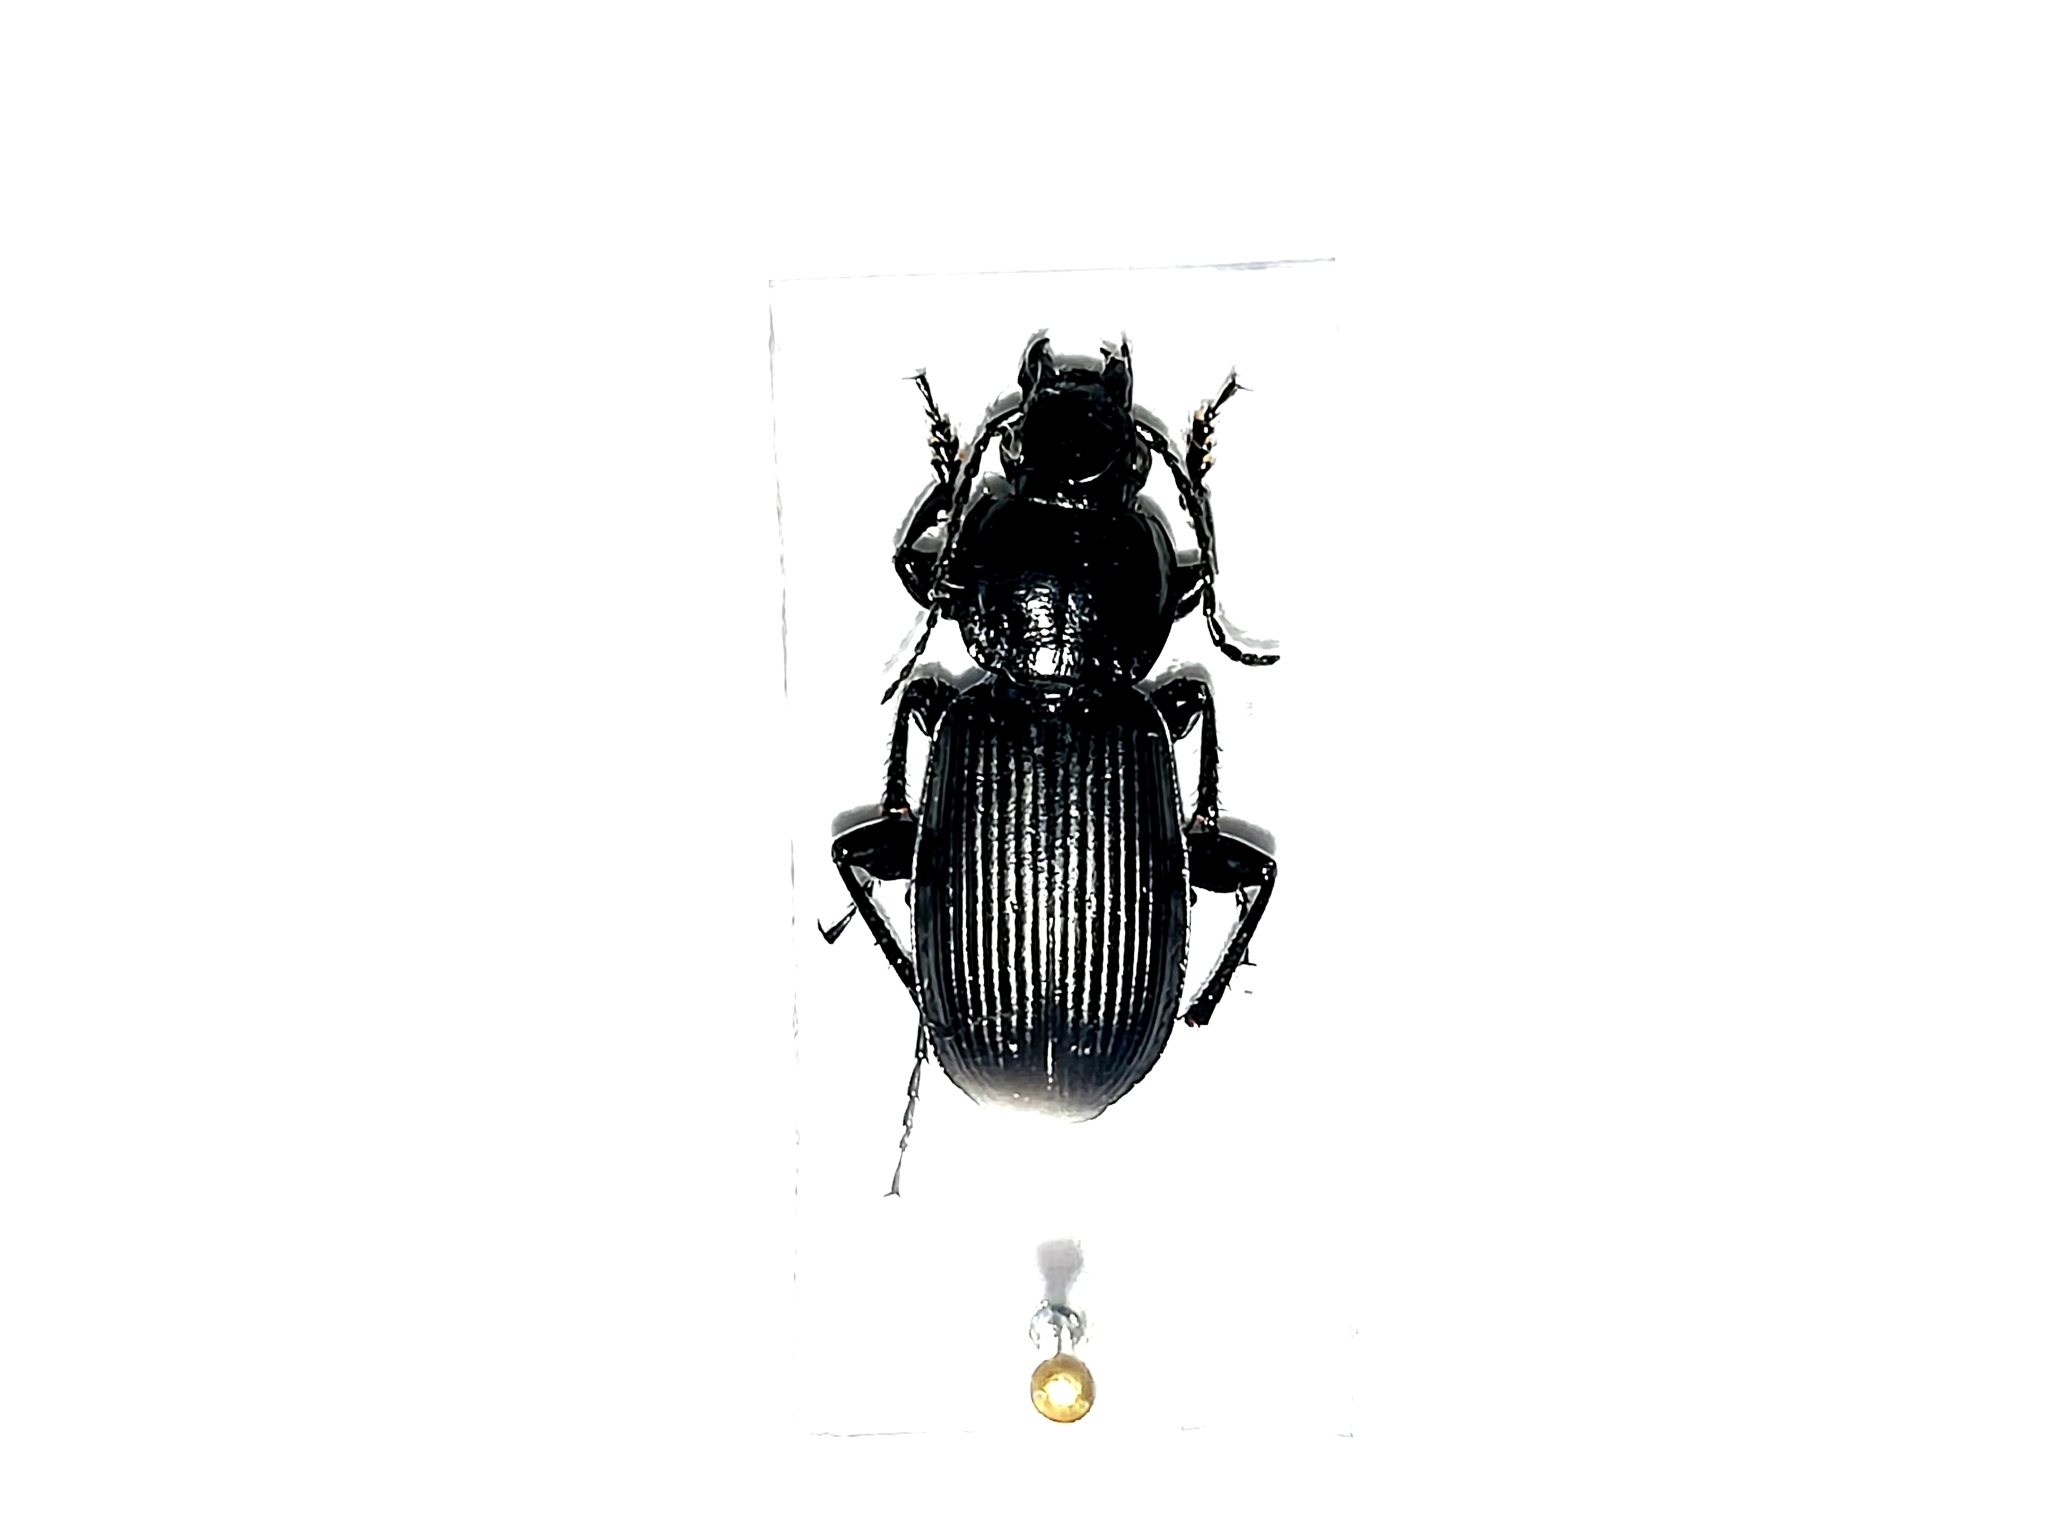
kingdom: Animalia
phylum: Arthropoda
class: Insecta
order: Coleoptera
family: Carabidae
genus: Pterostichus
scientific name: Pterostichus melanarius
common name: European dark harp ground beetle
